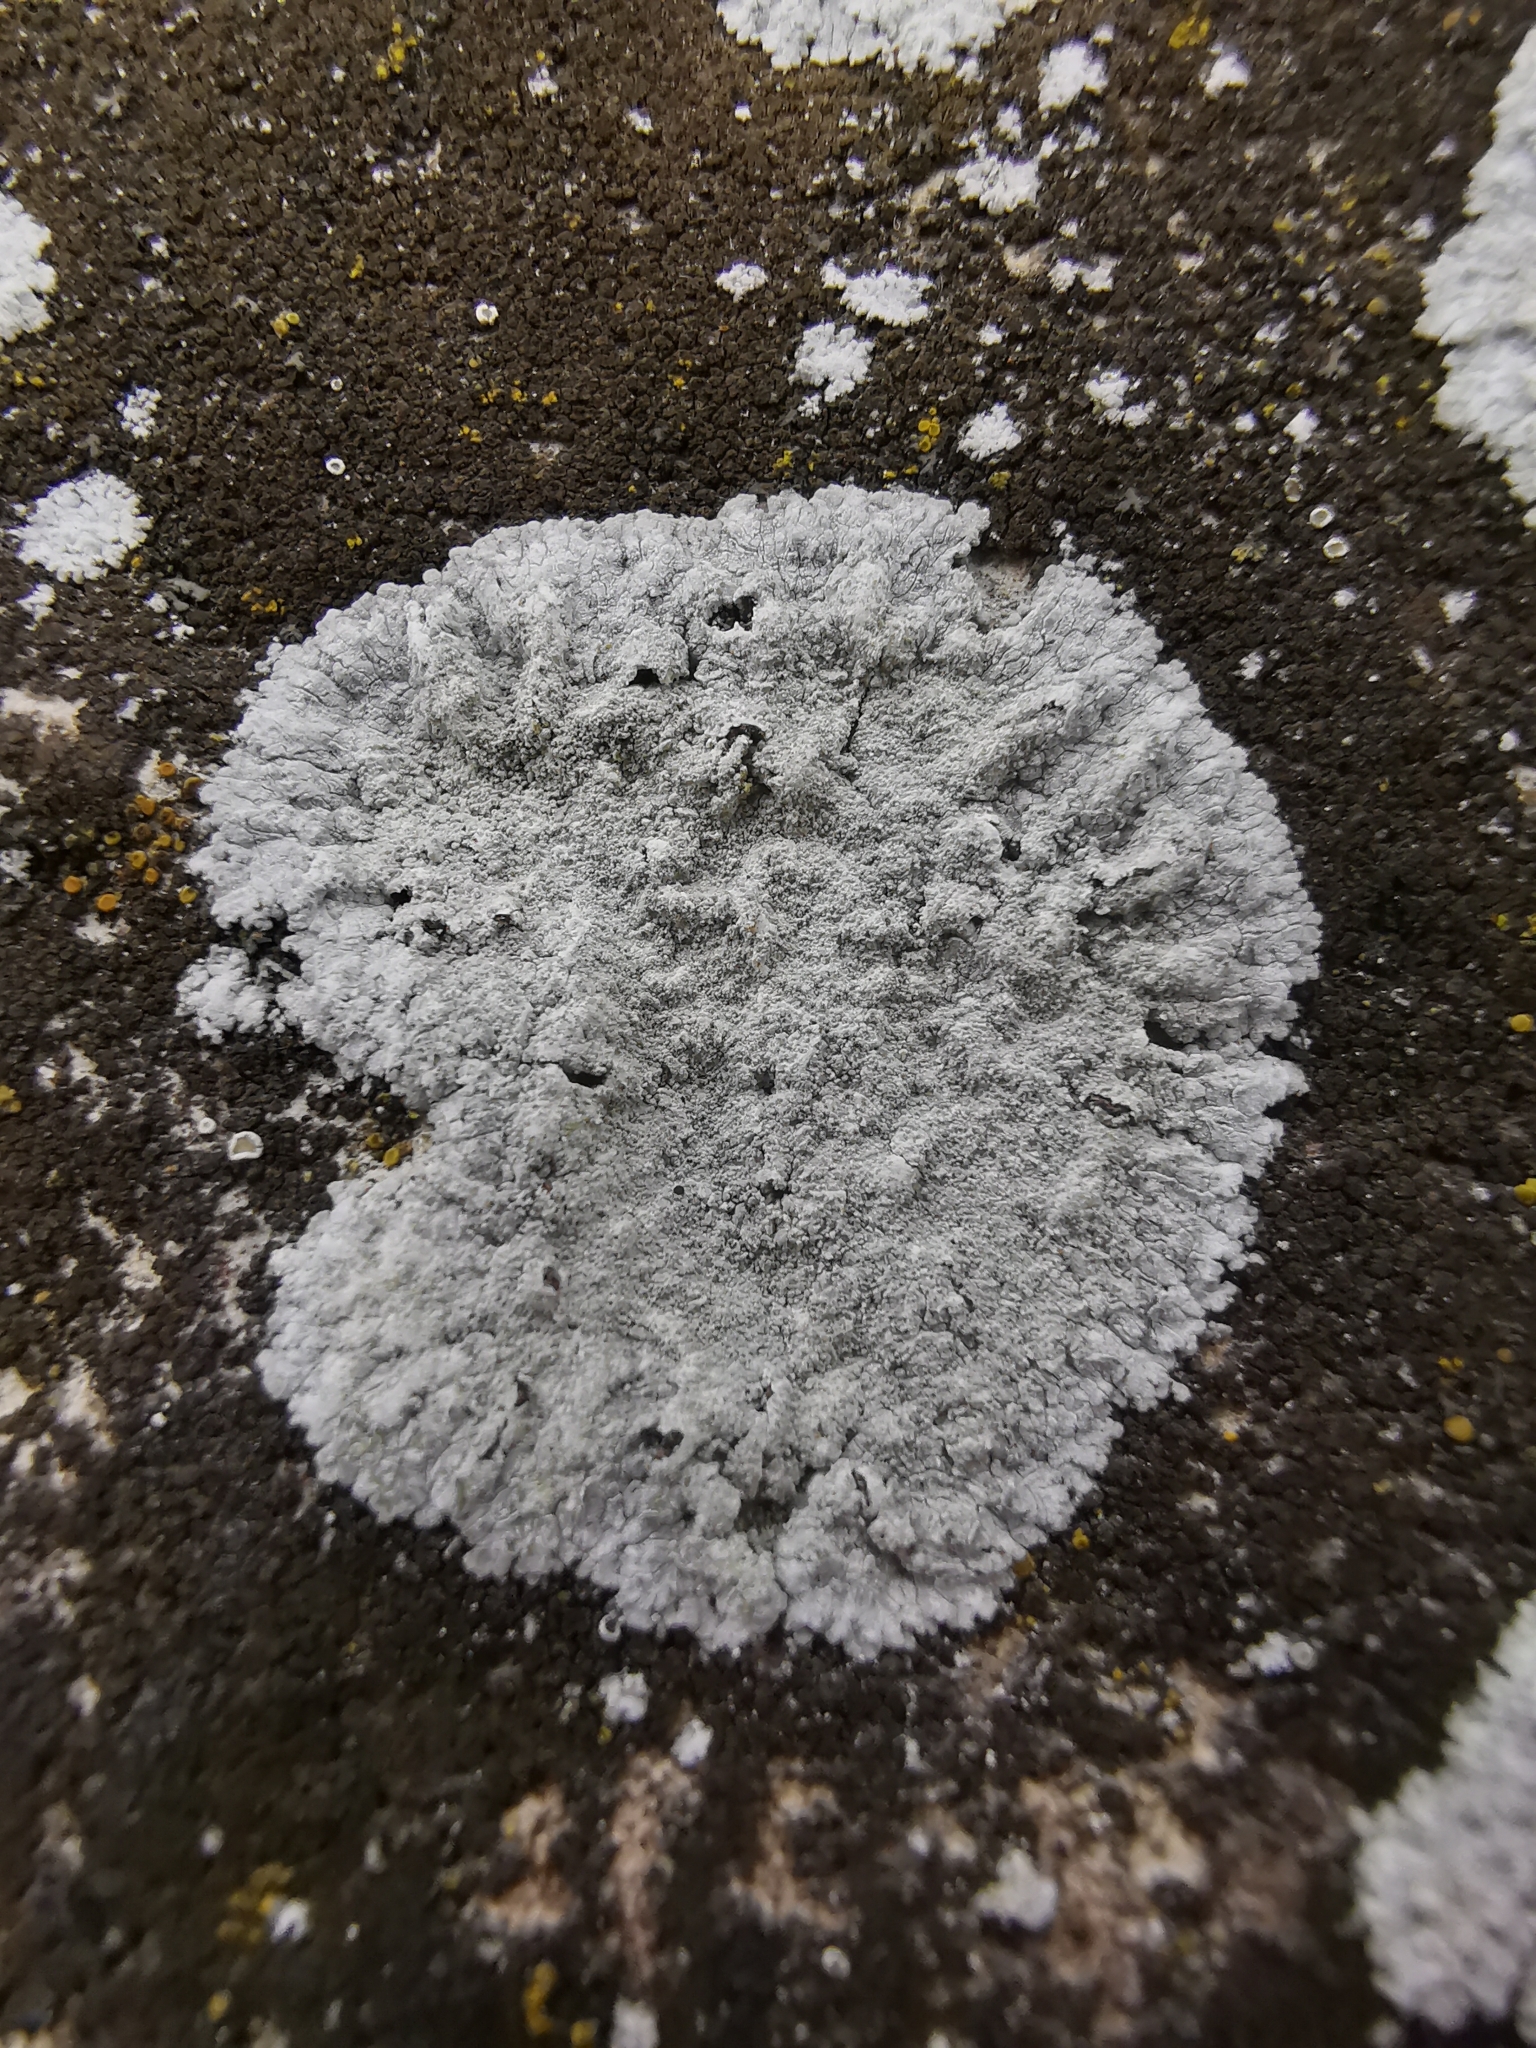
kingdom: Fungi
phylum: Ascomycota
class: Lecanoromycetes
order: Teloschistales
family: Teloschistaceae
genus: Kuettlingeria
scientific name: Kuettlingeria teicholyta
